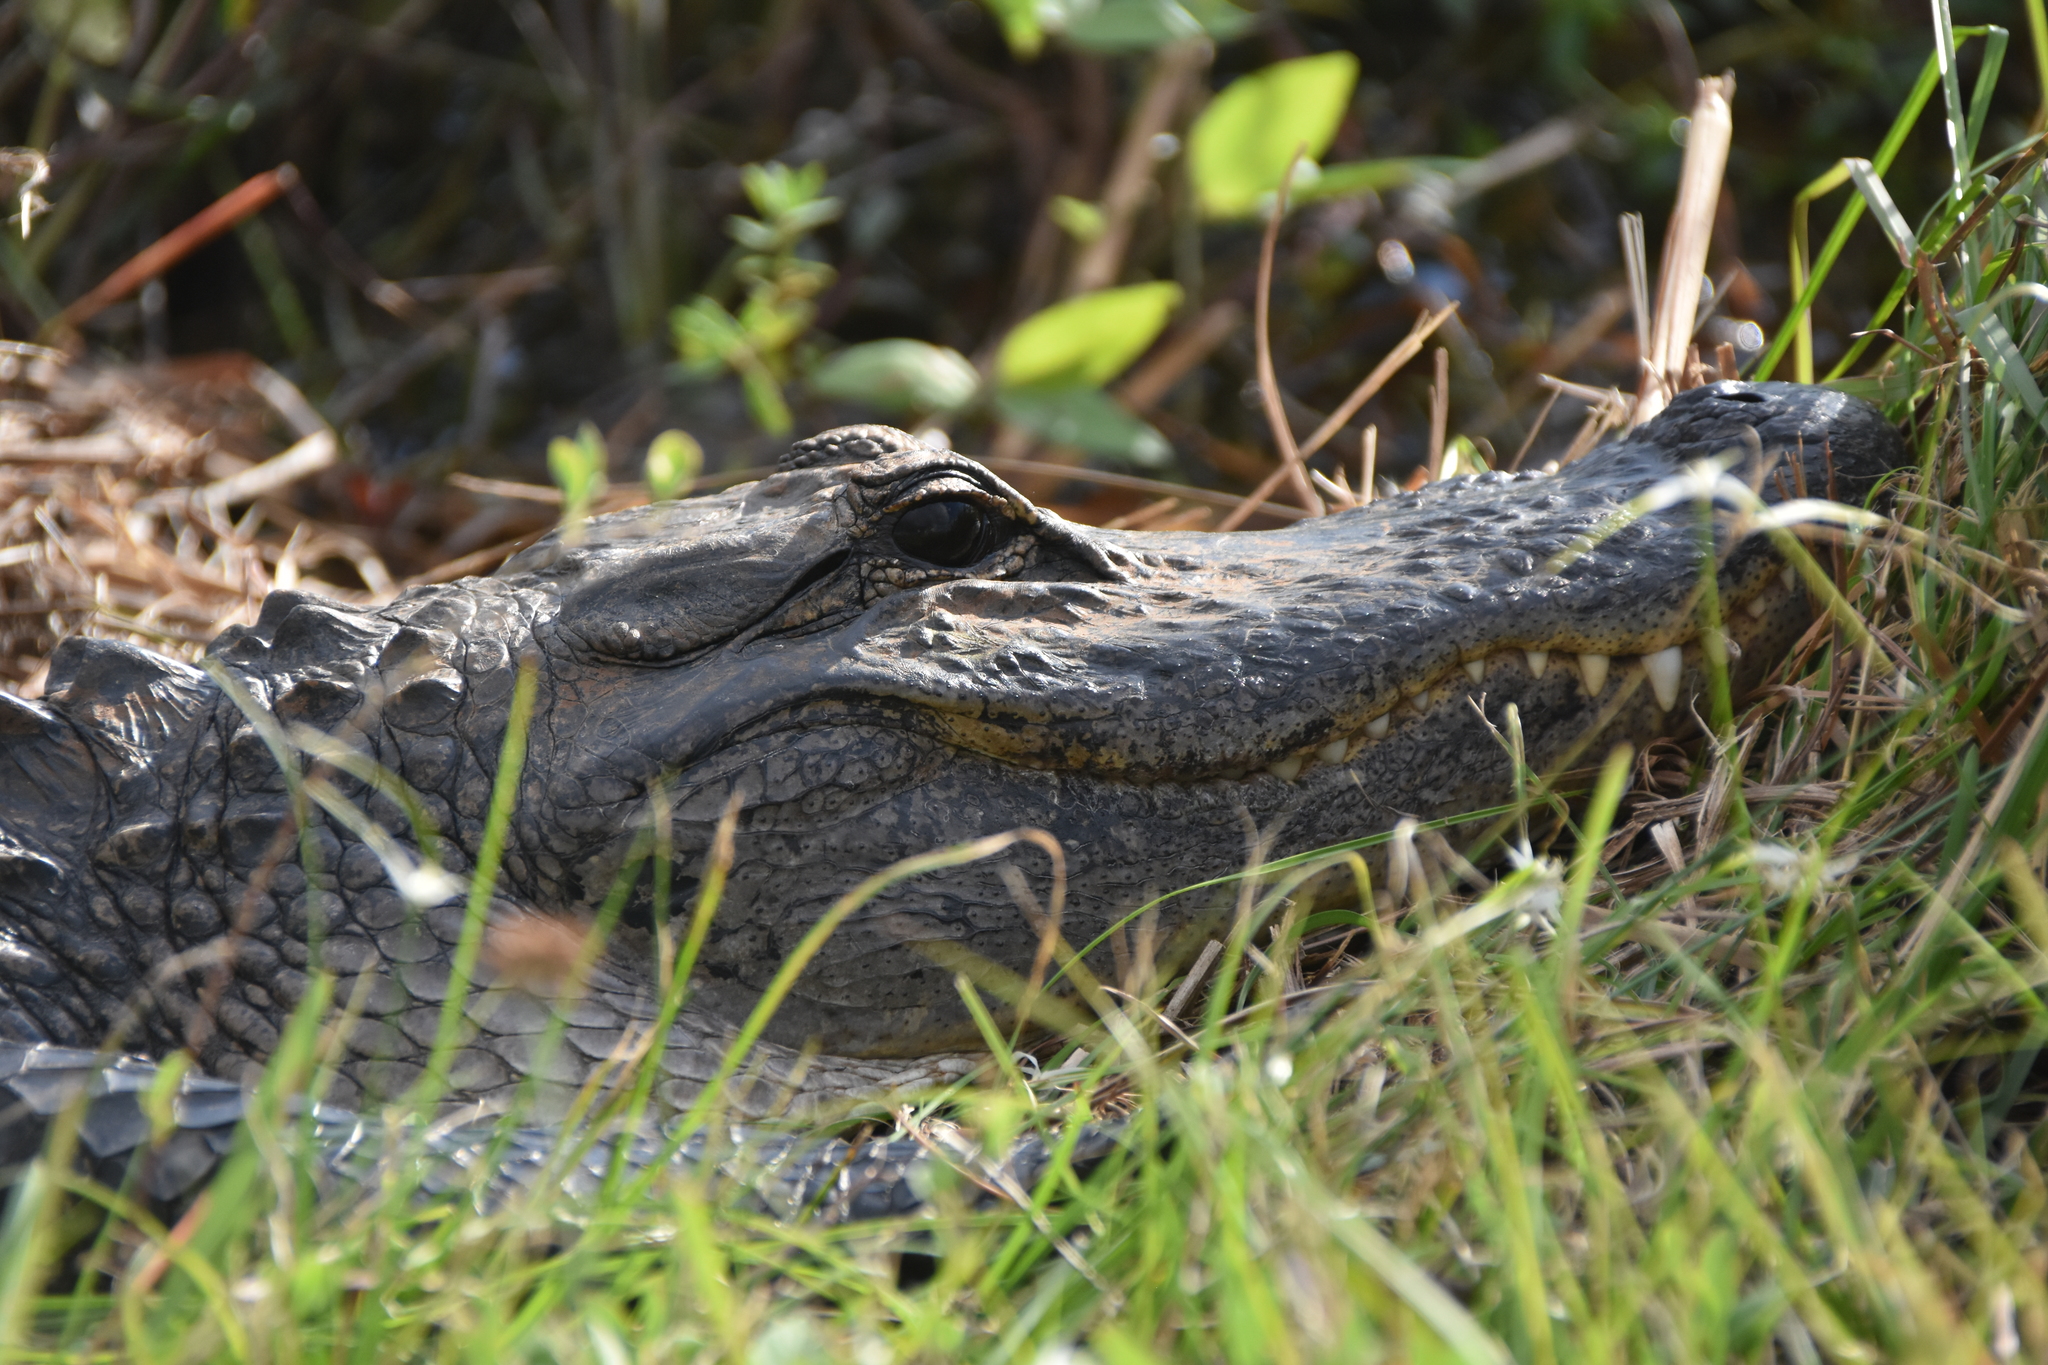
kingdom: Animalia
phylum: Chordata
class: Crocodylia
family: Alligatoridae
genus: Alligator
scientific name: Alligator mississippiensis
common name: American alligator
